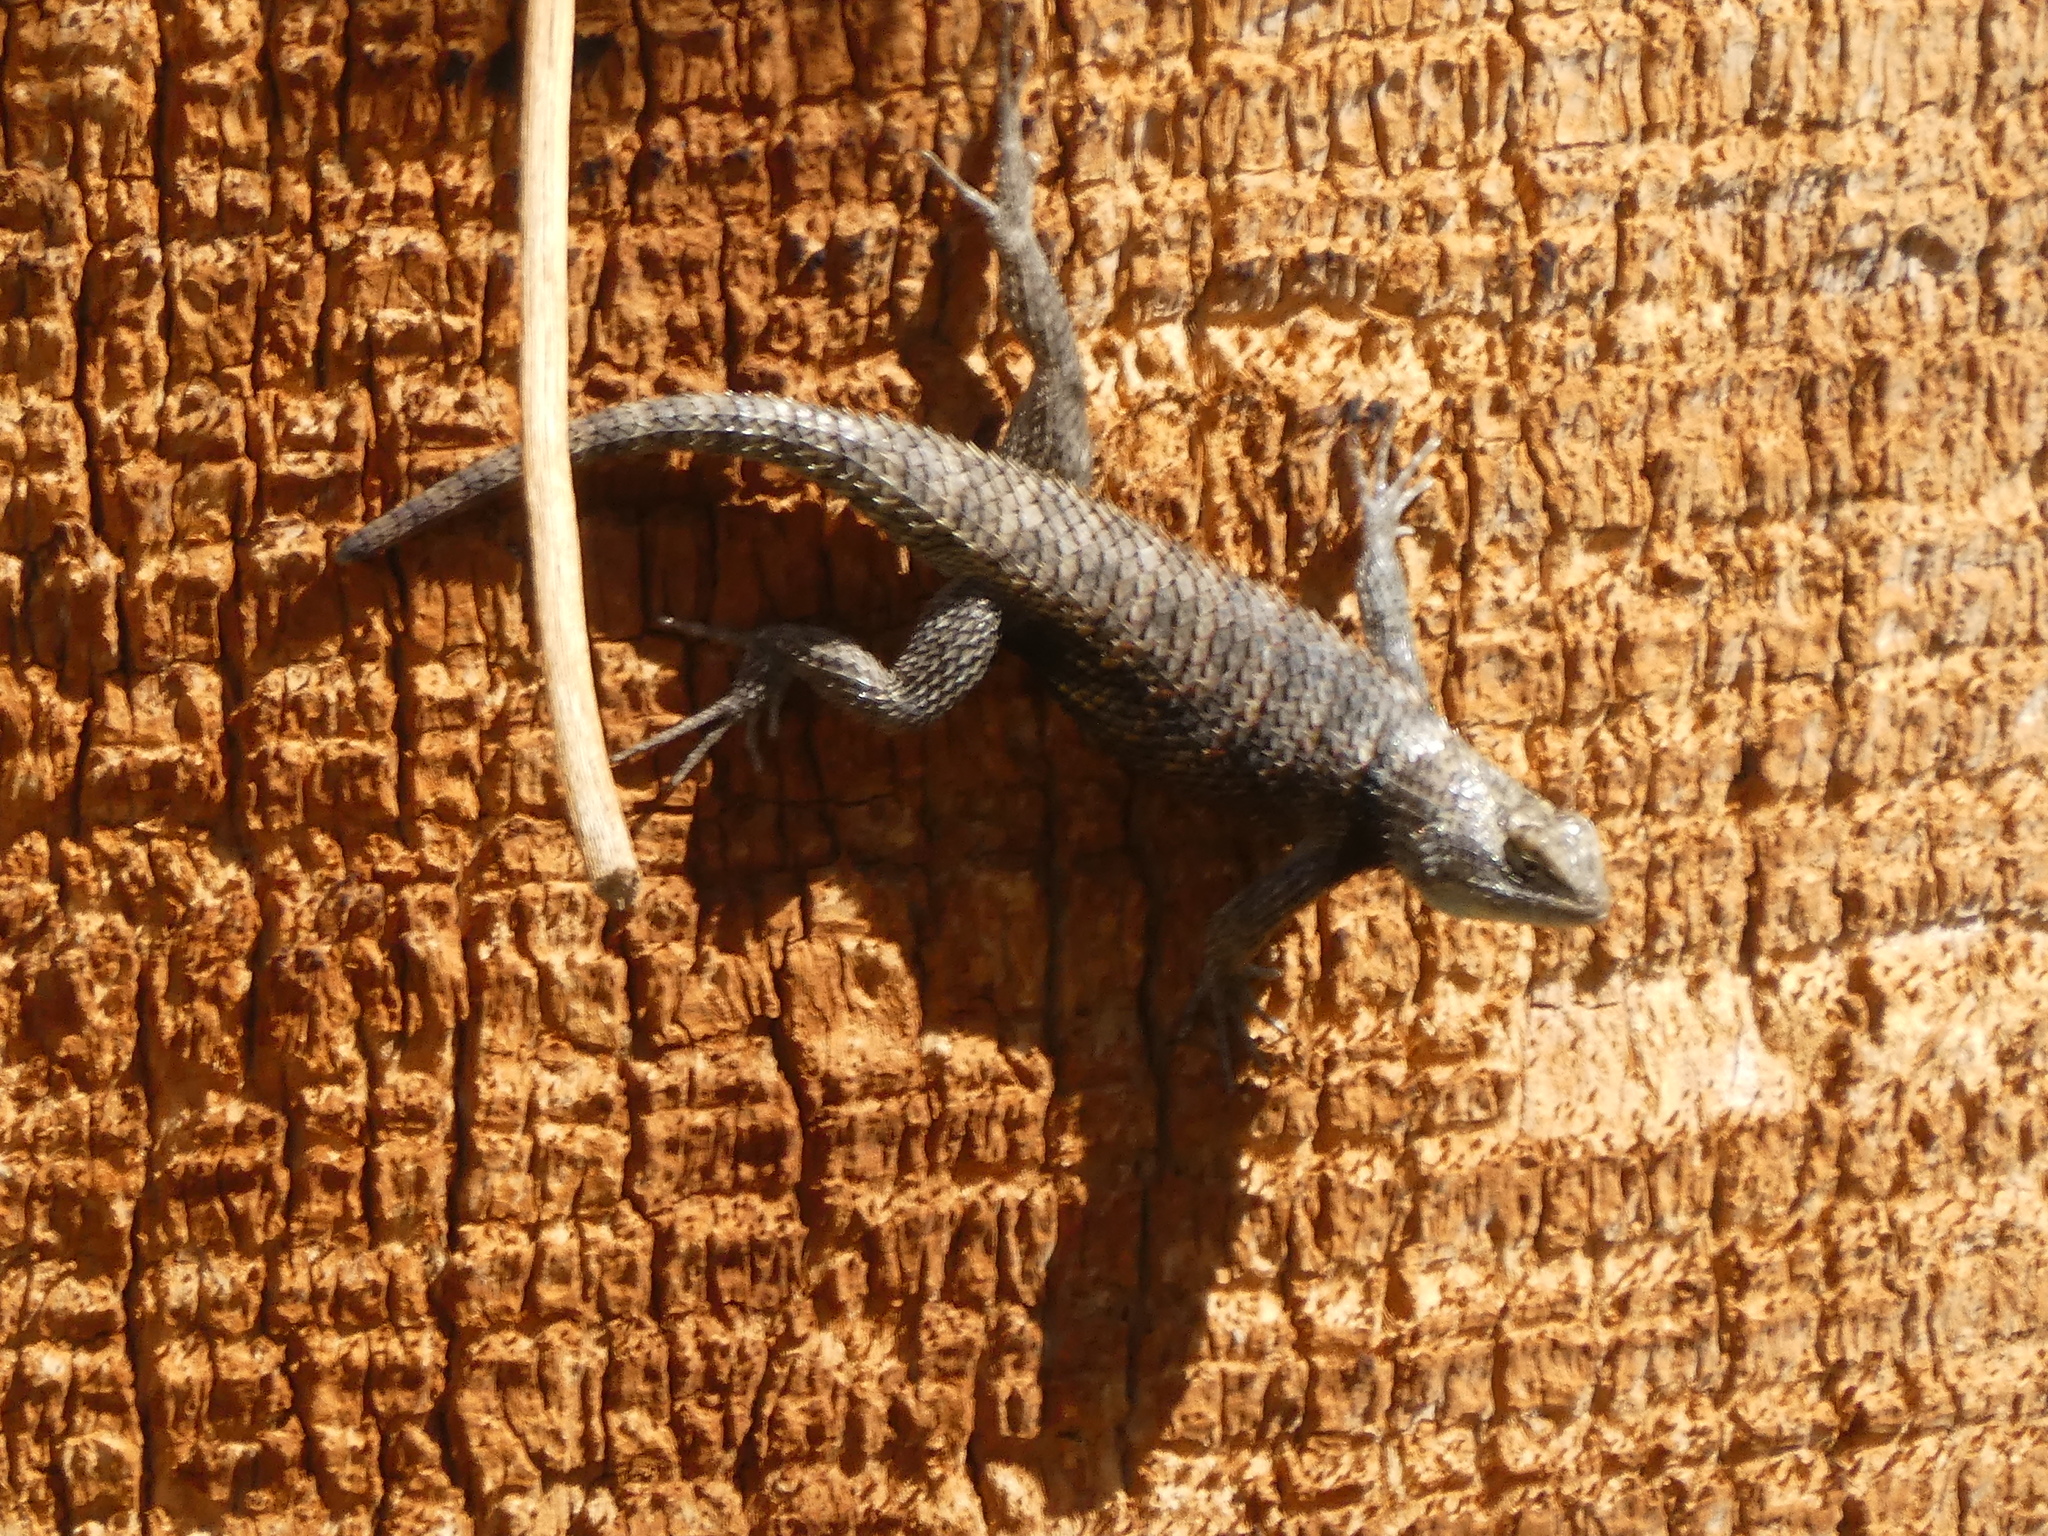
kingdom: Animalia
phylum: Chordata
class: Squamata
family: Phrynosomatidae
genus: Sceloporus
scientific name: Sceloporus magister
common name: Desert spiny lizard
